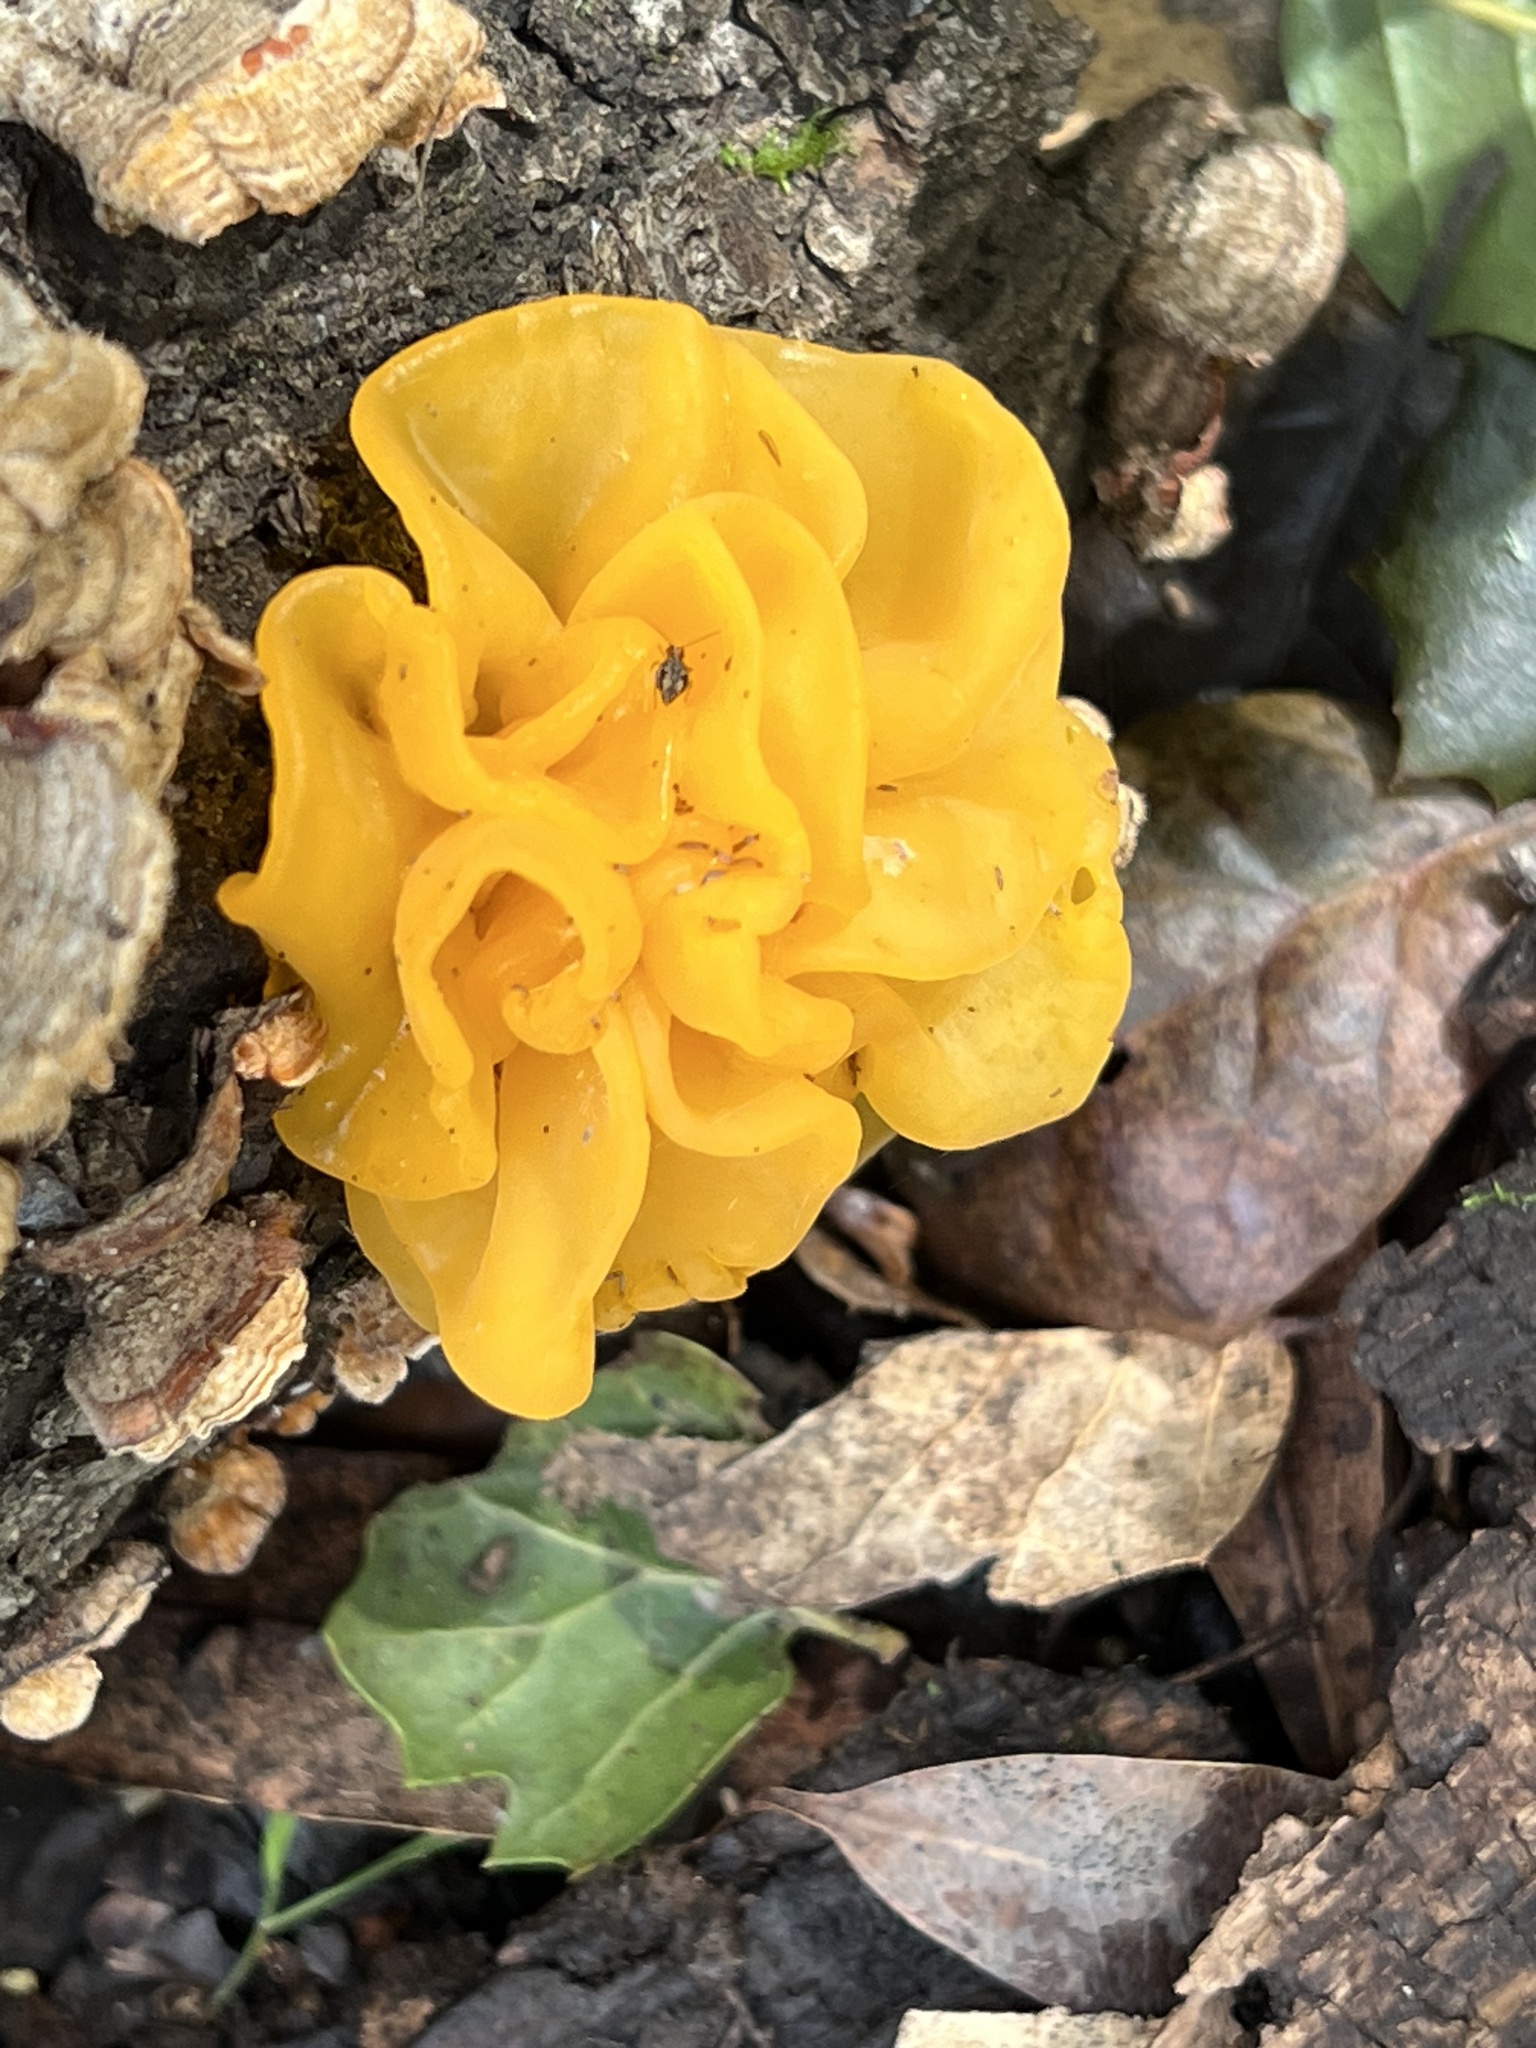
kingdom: Fungi
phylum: Basidiomycota
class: Tremellomycetes
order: Tremellales
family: Naemateliaceae
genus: Naematelia
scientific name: Naematelia aurantia
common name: Golden ear
